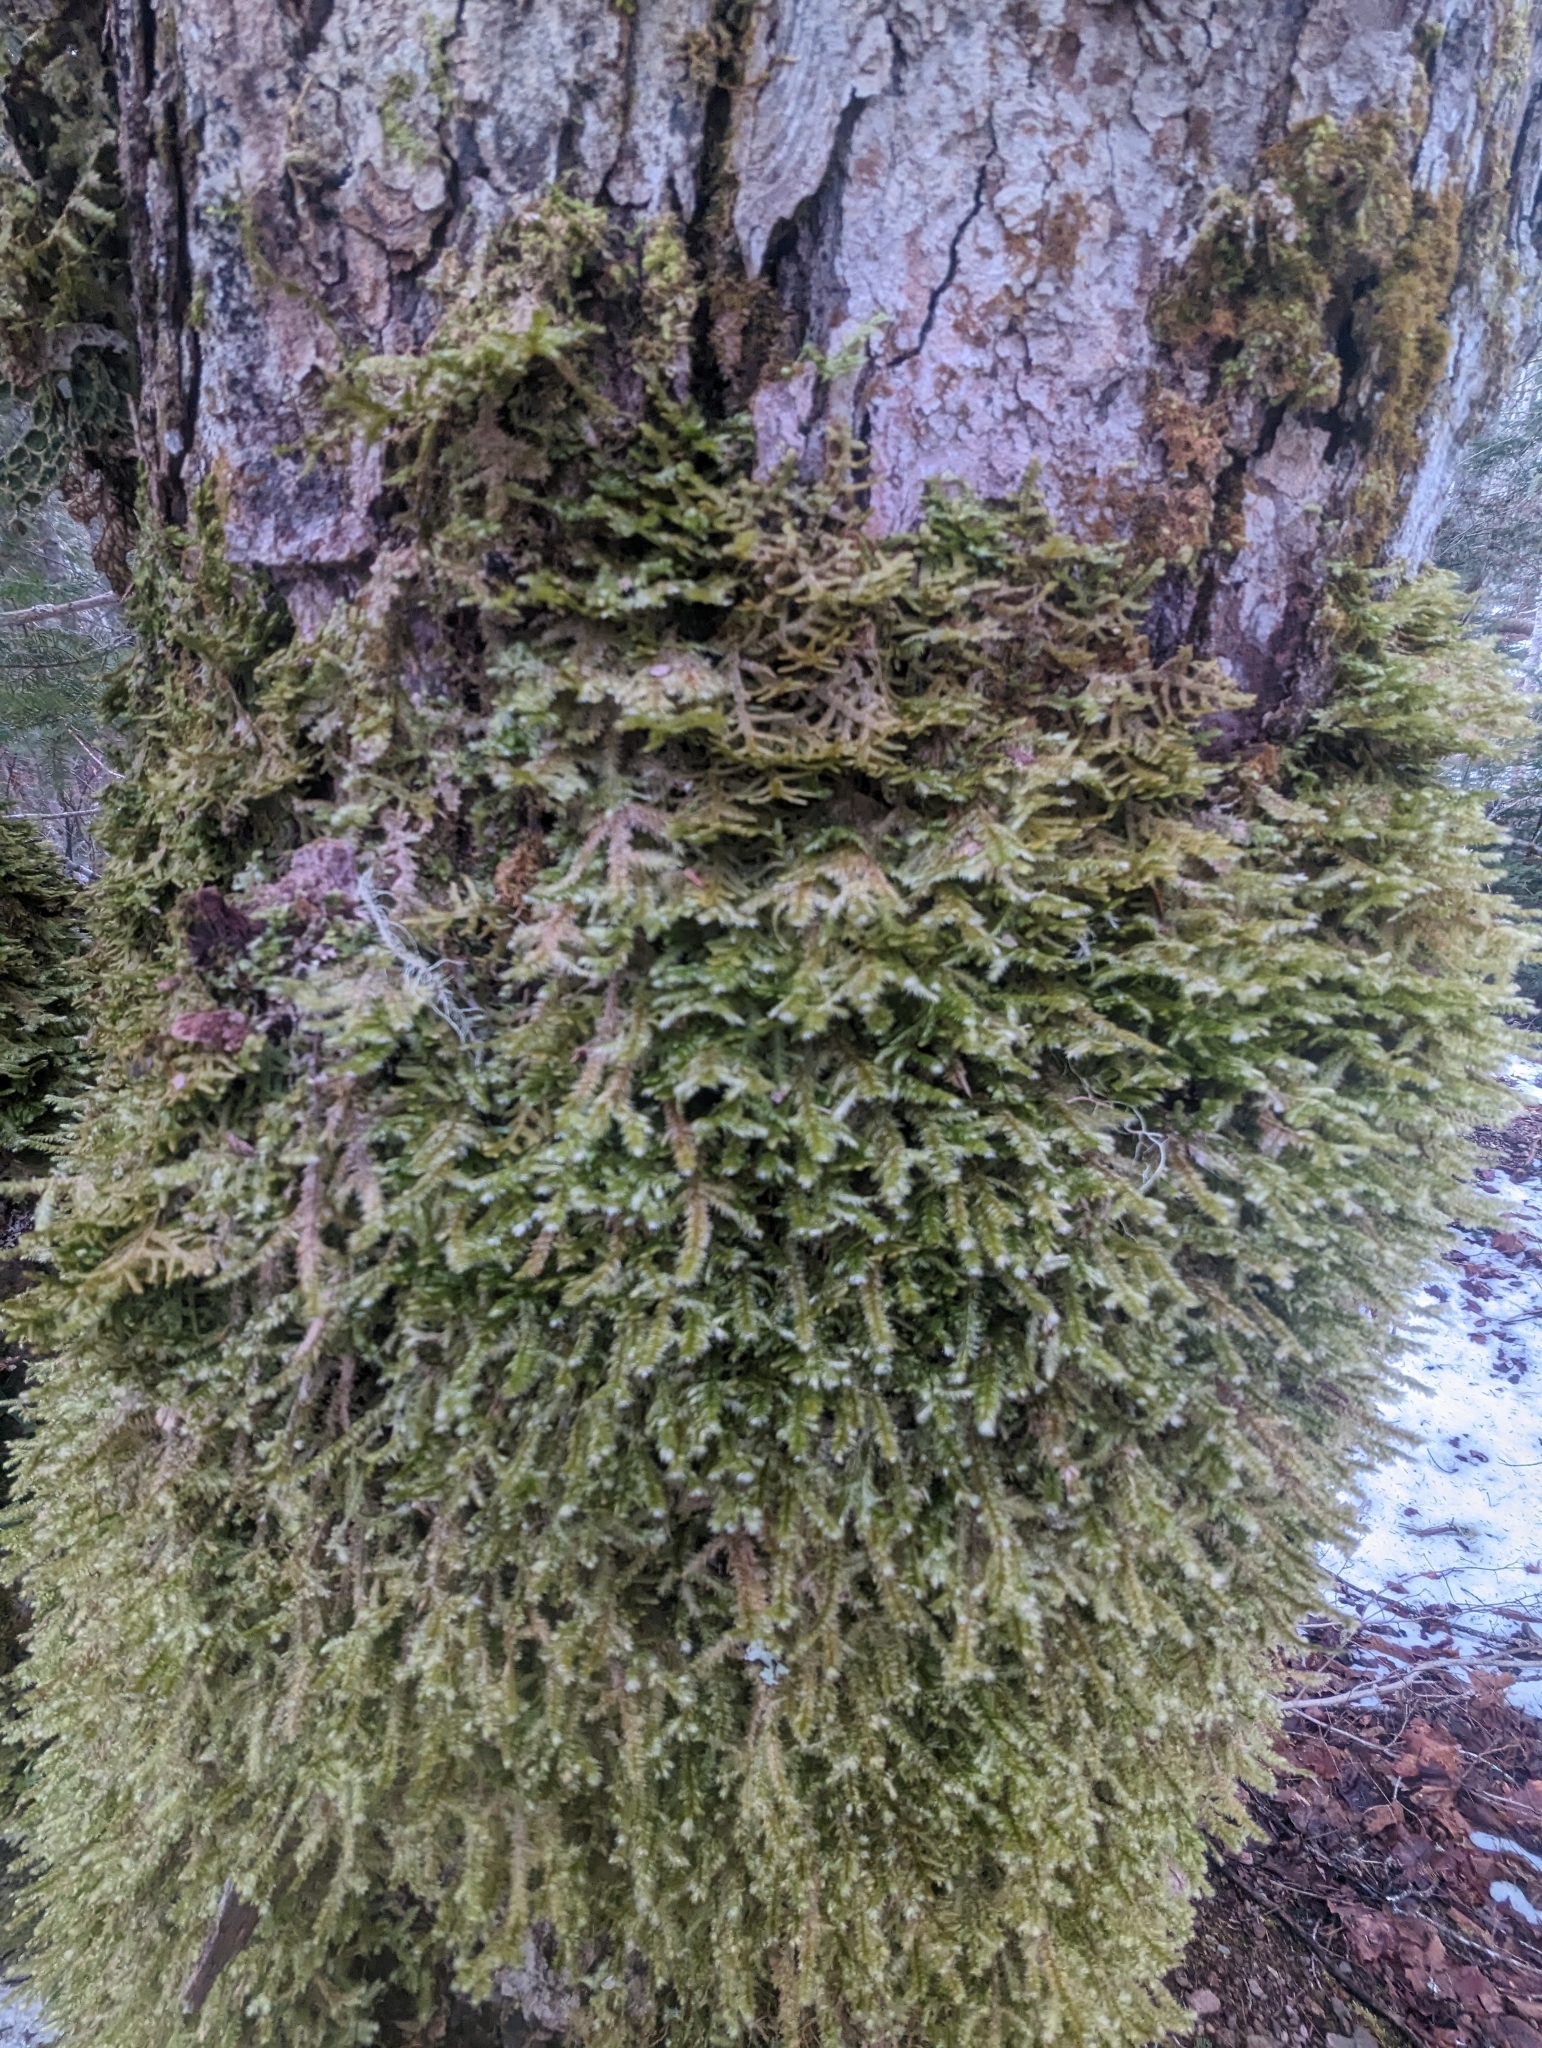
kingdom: Plantae
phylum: Bryophyta
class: Bryopsida
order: Hypnales
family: Neckeraceae
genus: Neckera
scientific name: Neckera pennata
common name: Feathery neckera
